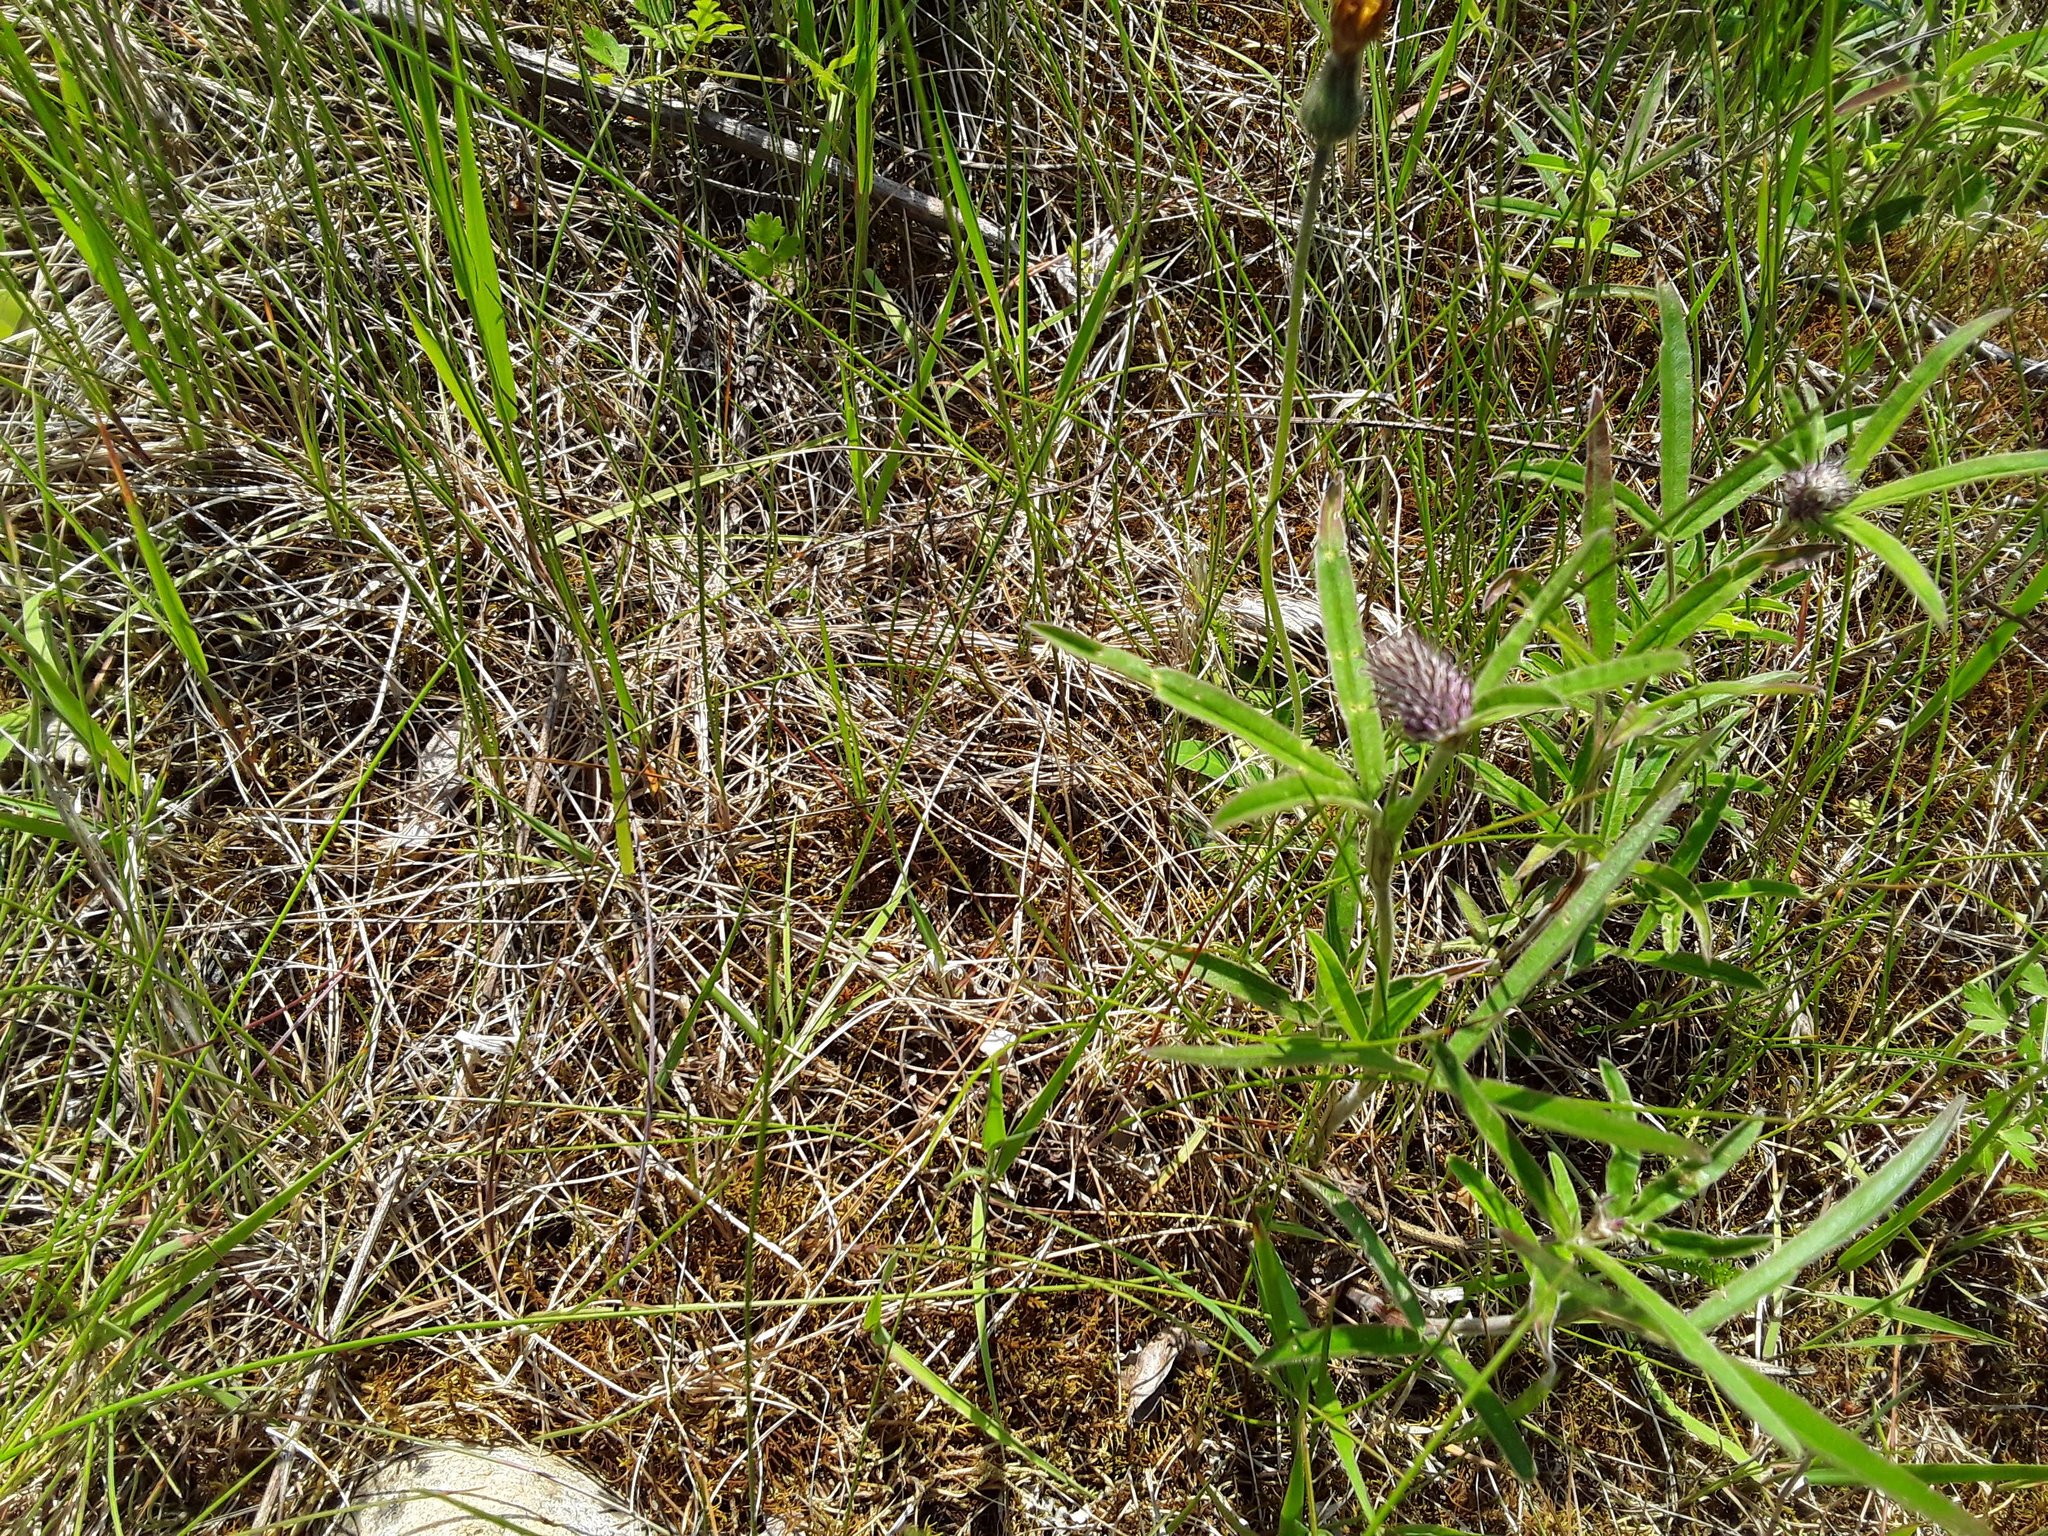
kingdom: Plantae
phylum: Tracheophyta
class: Magnoliopsida
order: Fabales
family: Fabaceae
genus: Trifolium
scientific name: Trifolium alpestre
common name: Owl-head clover
